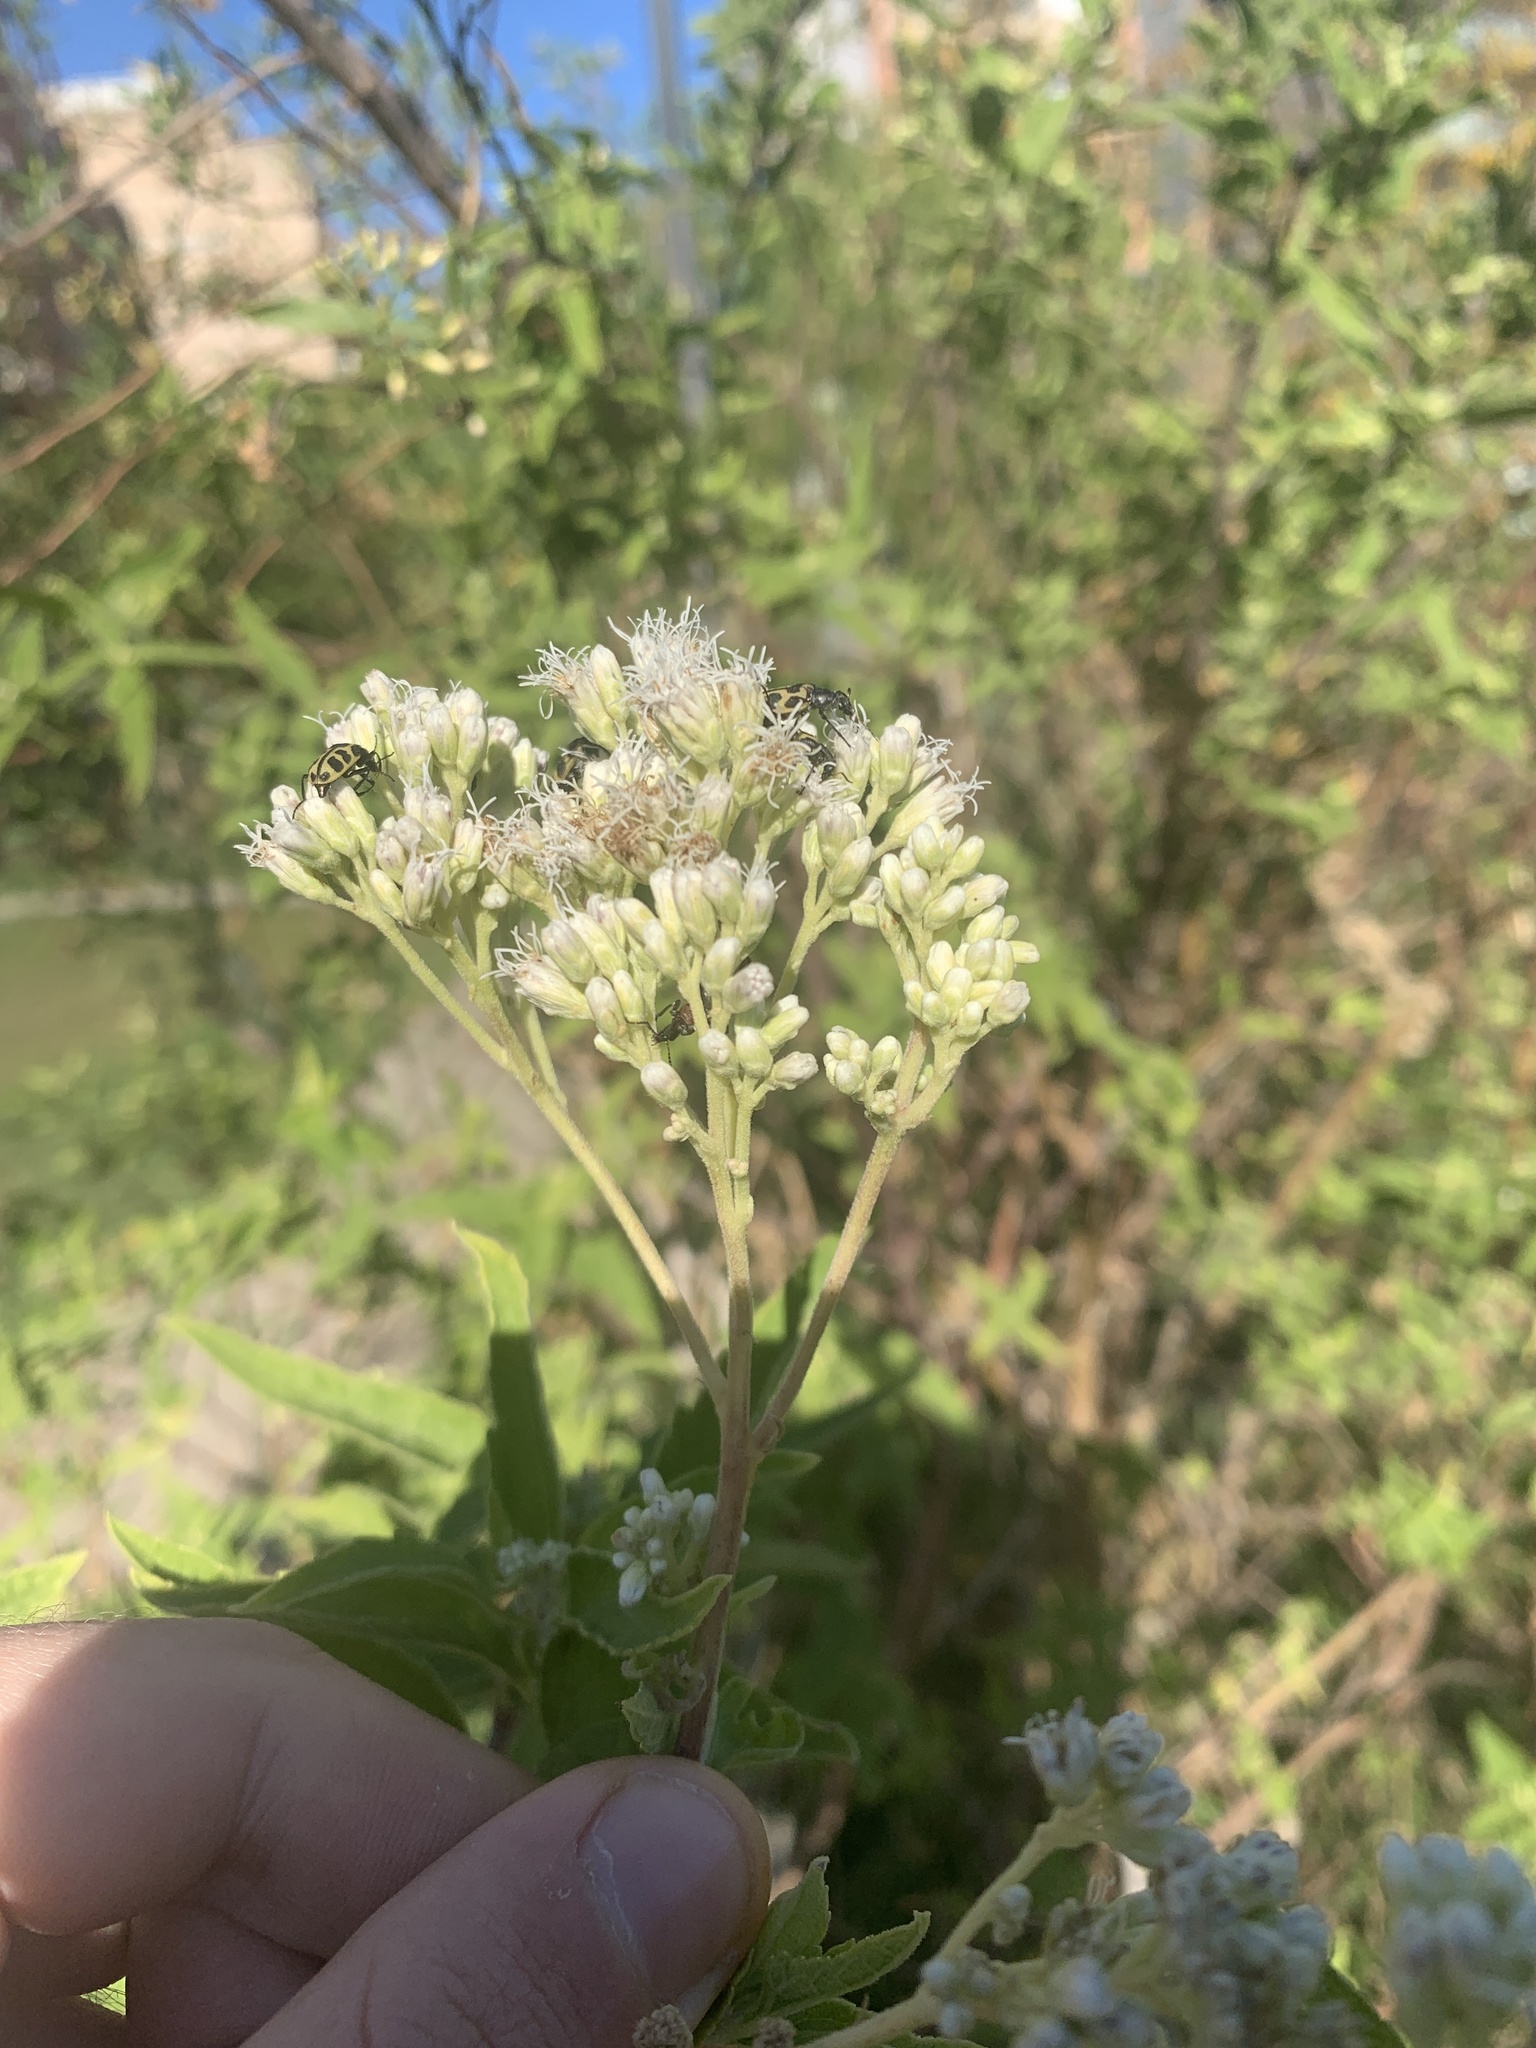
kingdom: Plantae
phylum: Tracheophyta
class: Magnoliopsida
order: Asterales
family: Asteraceae
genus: Austroeupatorium
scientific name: Austroeupatorium inulifolium
